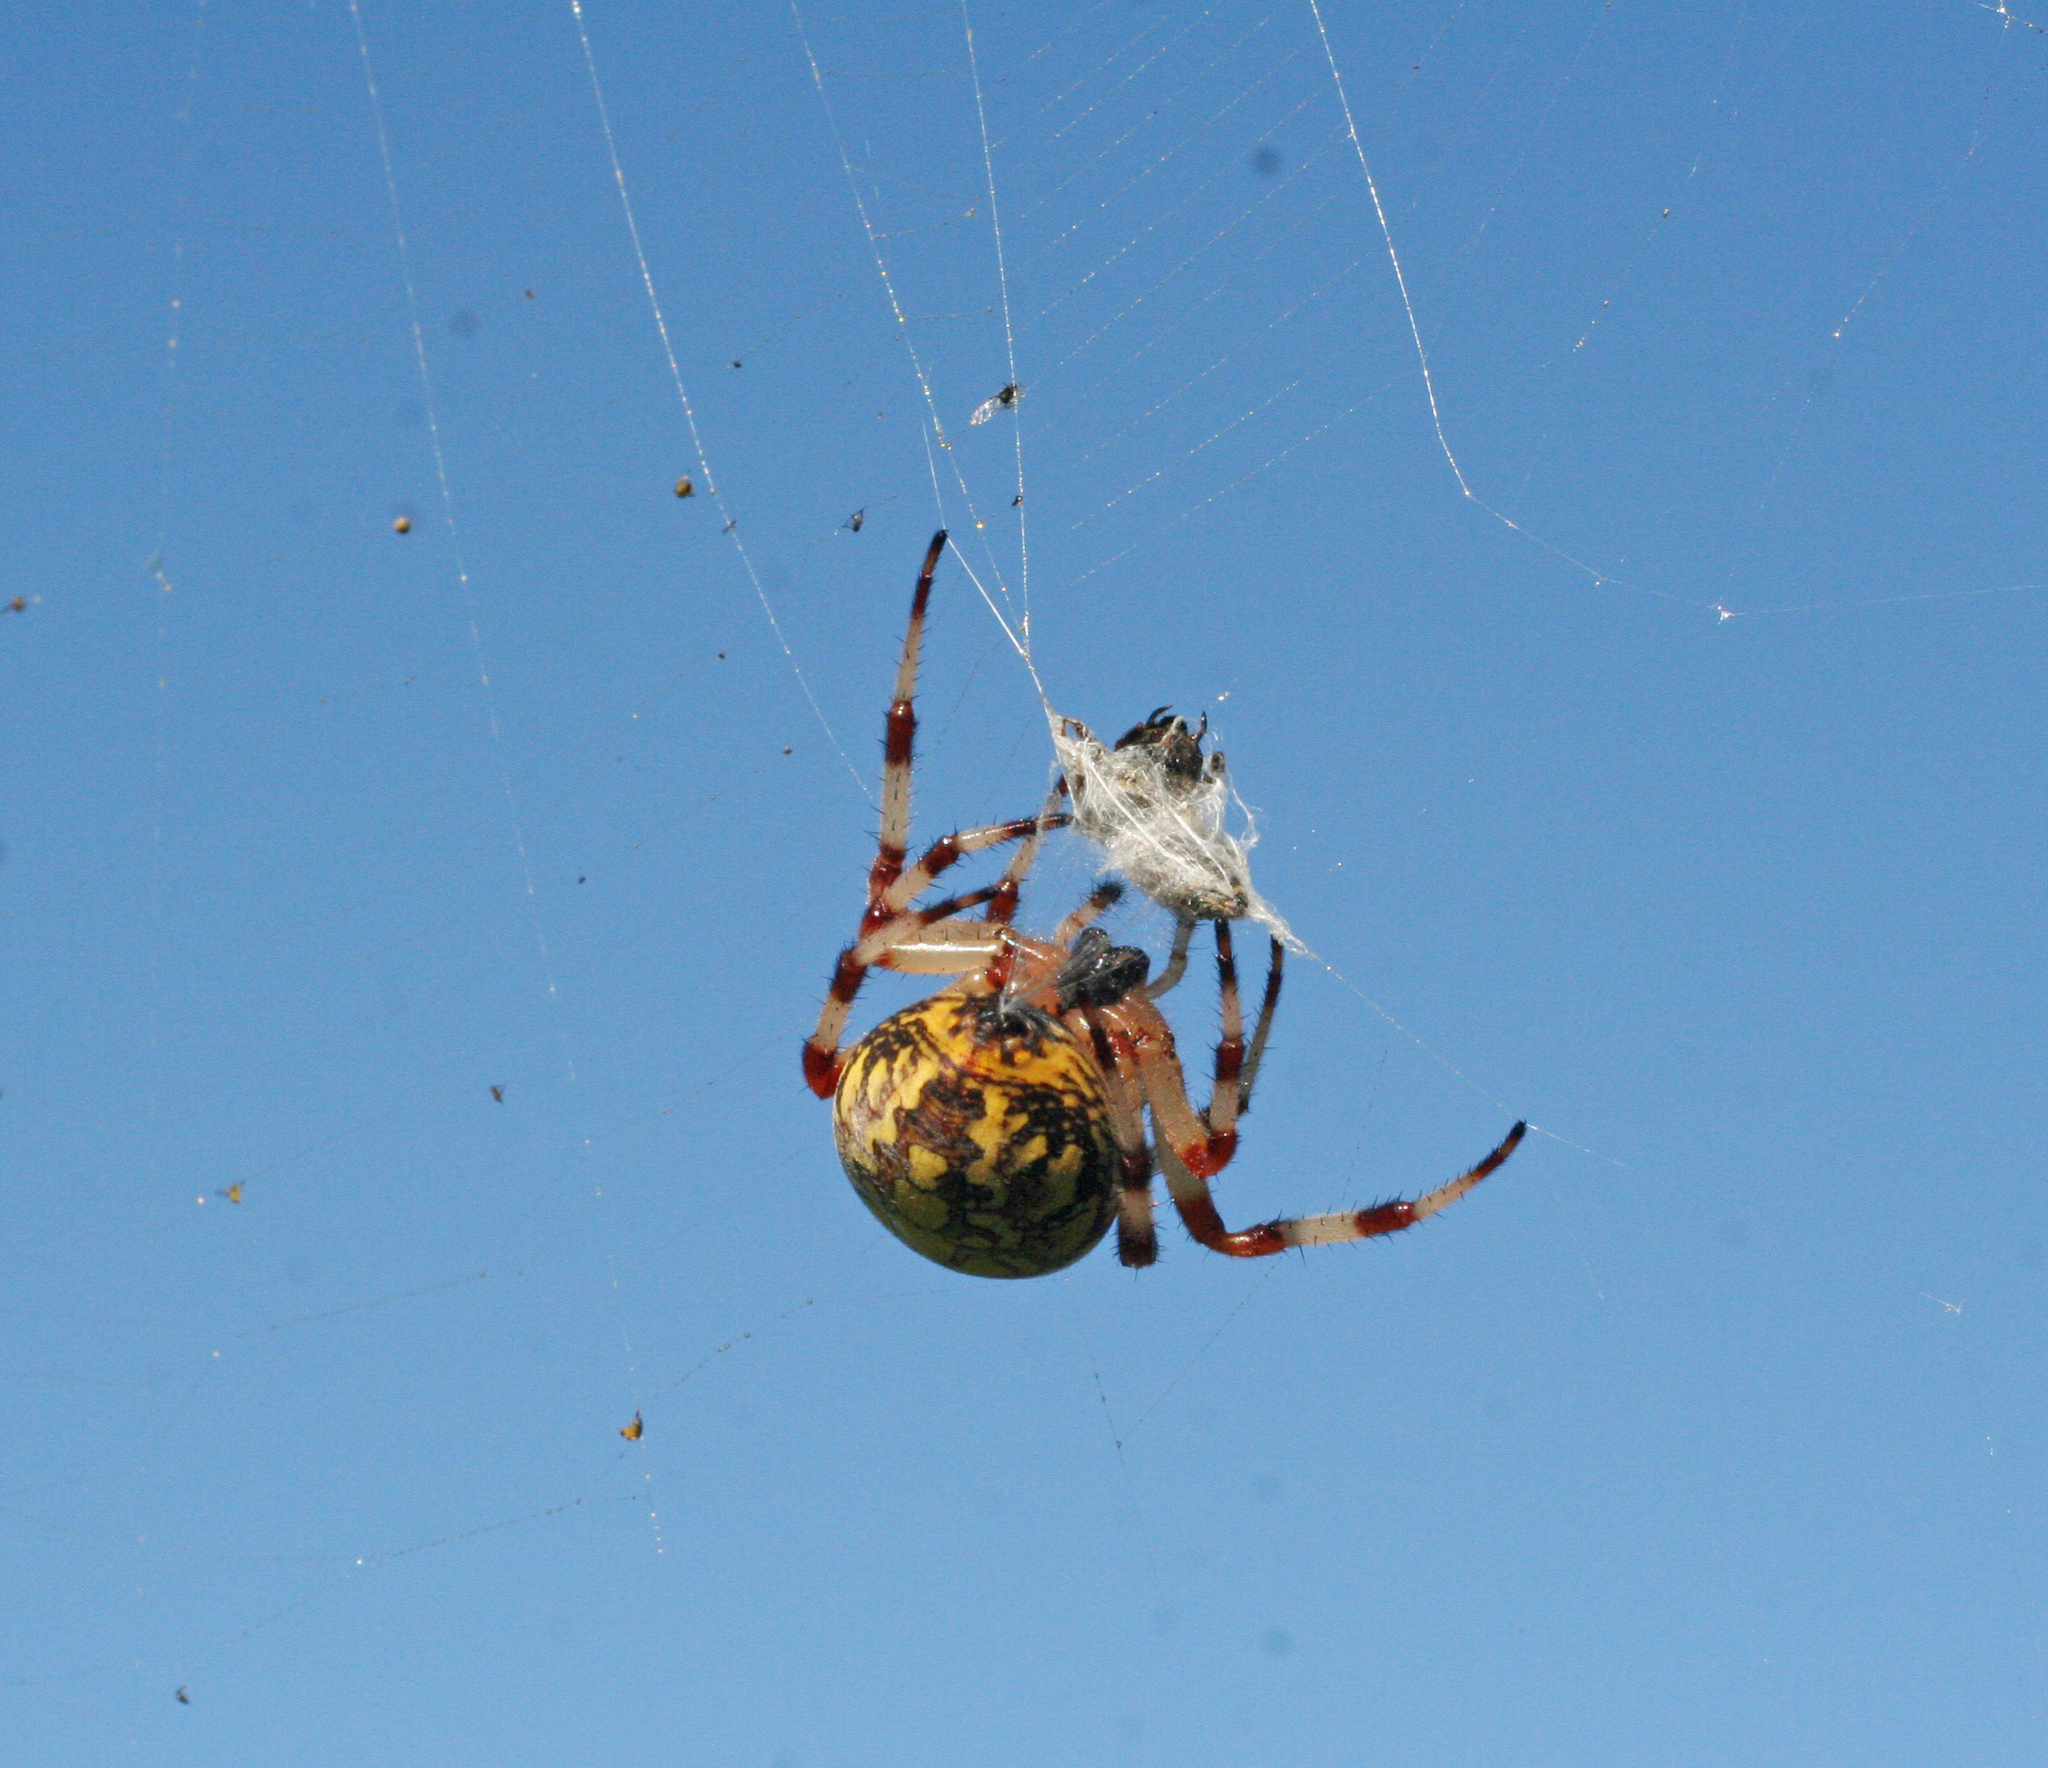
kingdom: Animalia
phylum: Arthropoda
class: Arachnida
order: Araneae
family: Araneidae
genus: Araneus
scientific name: Araneus marmoreus
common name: Marbled orbweaver
